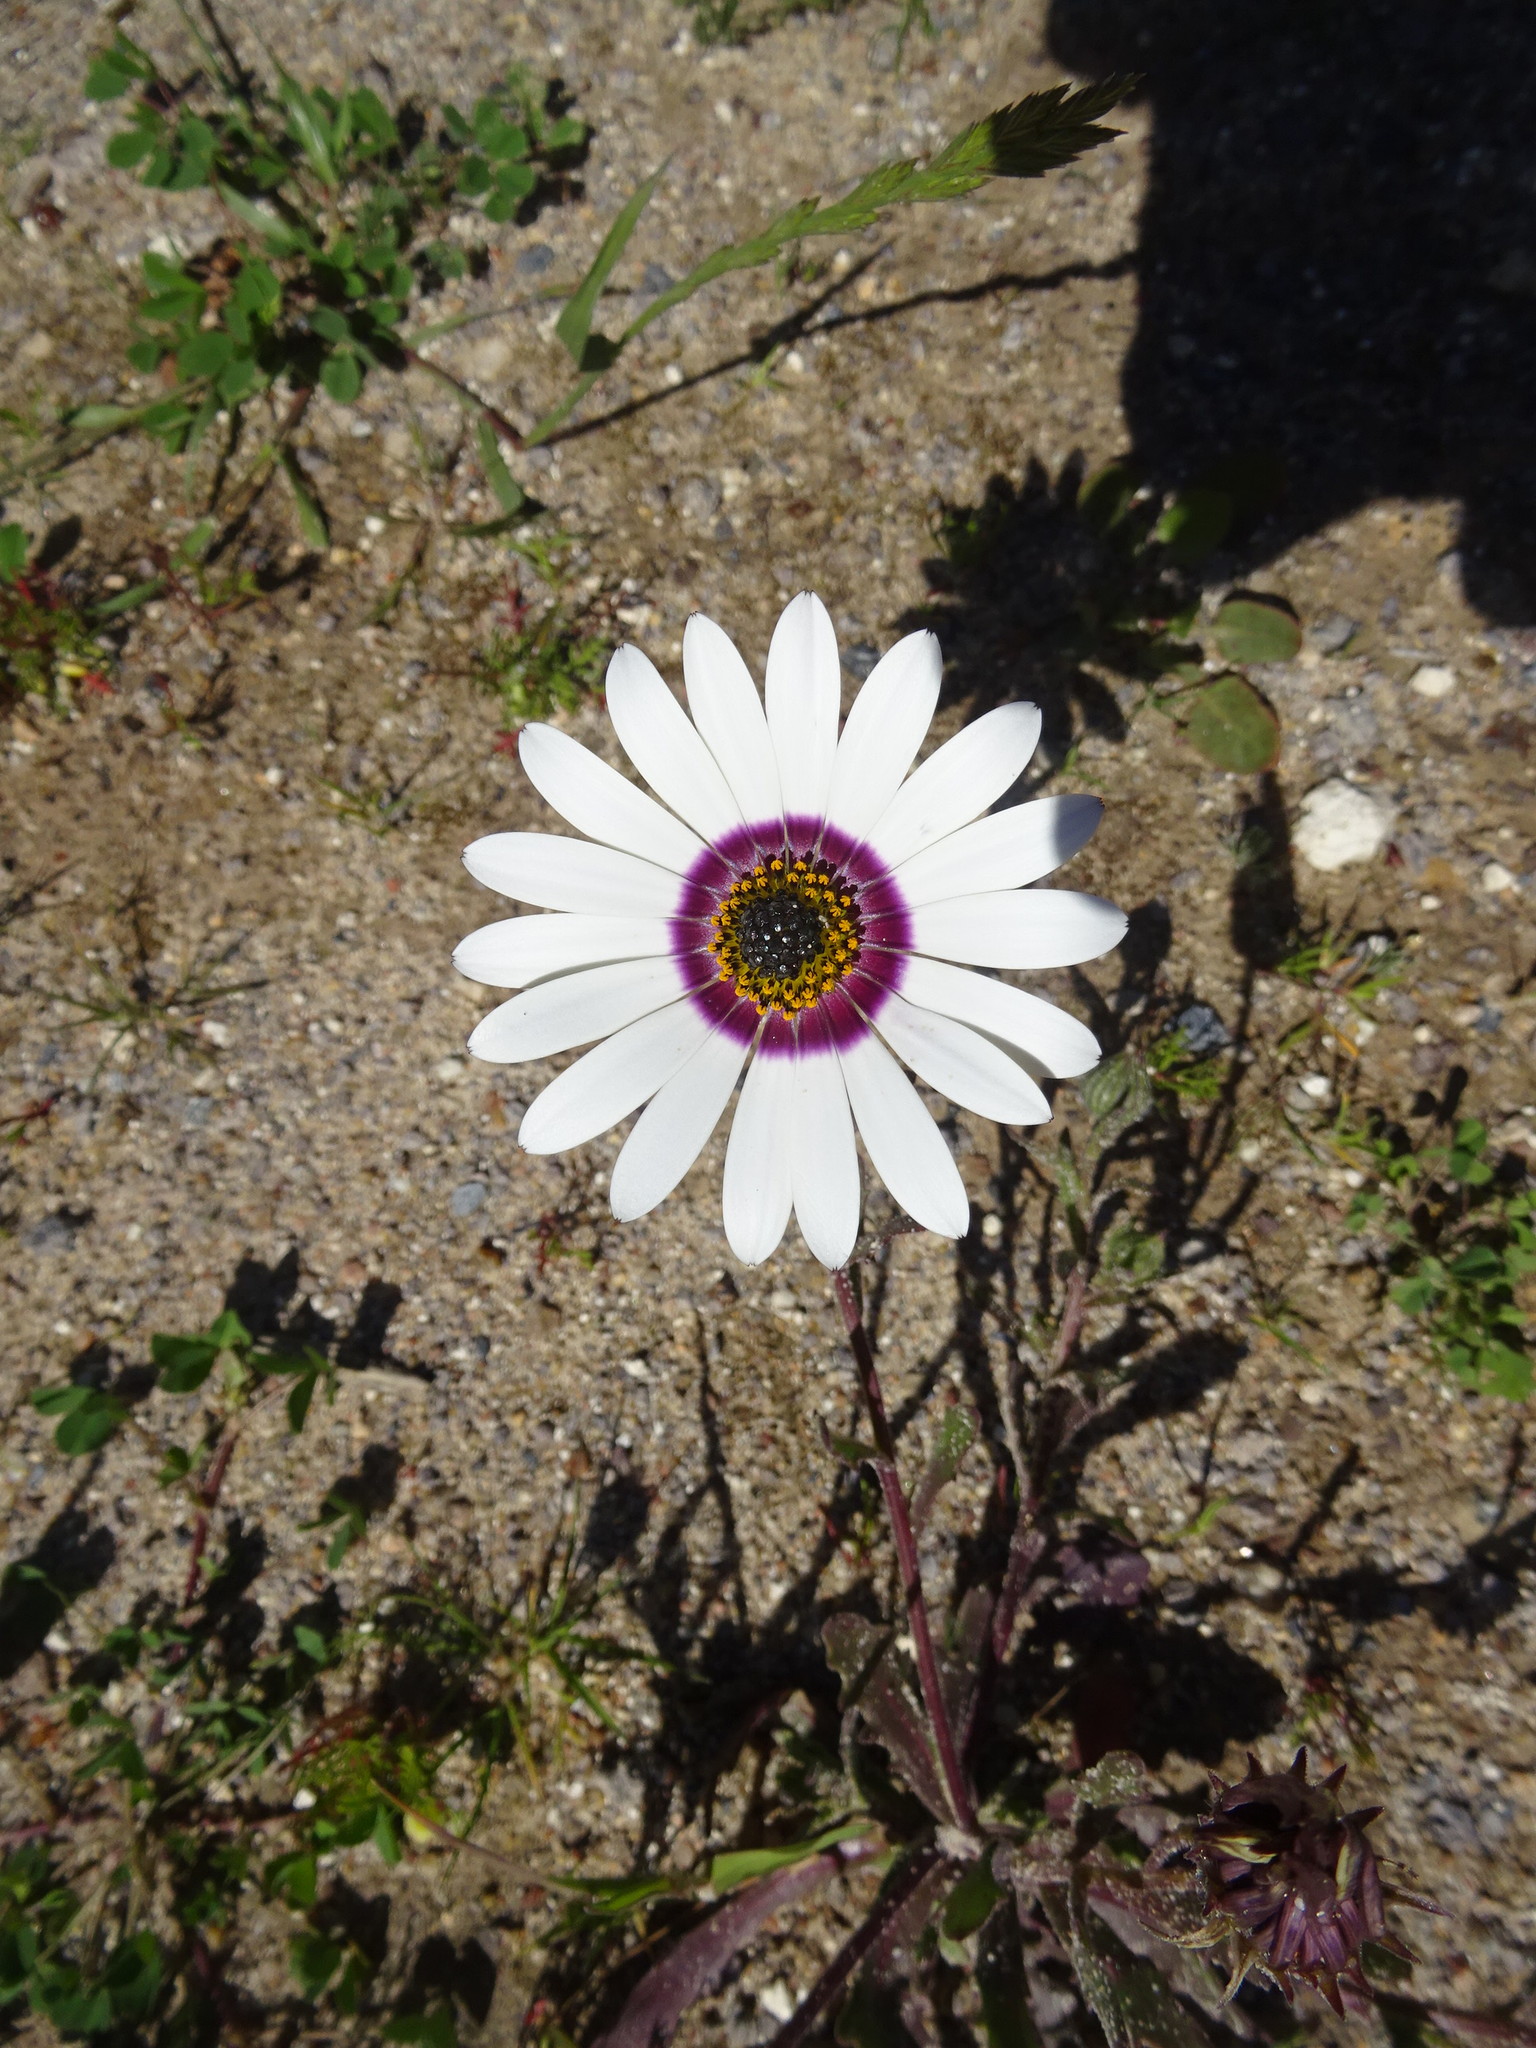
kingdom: Plantae
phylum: Tracheophyta
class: Magnoliopsida
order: Asterales
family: Asteraceae
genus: Dimorphotheca
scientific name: Dimorphotheca pluvialis
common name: Weather prophet
